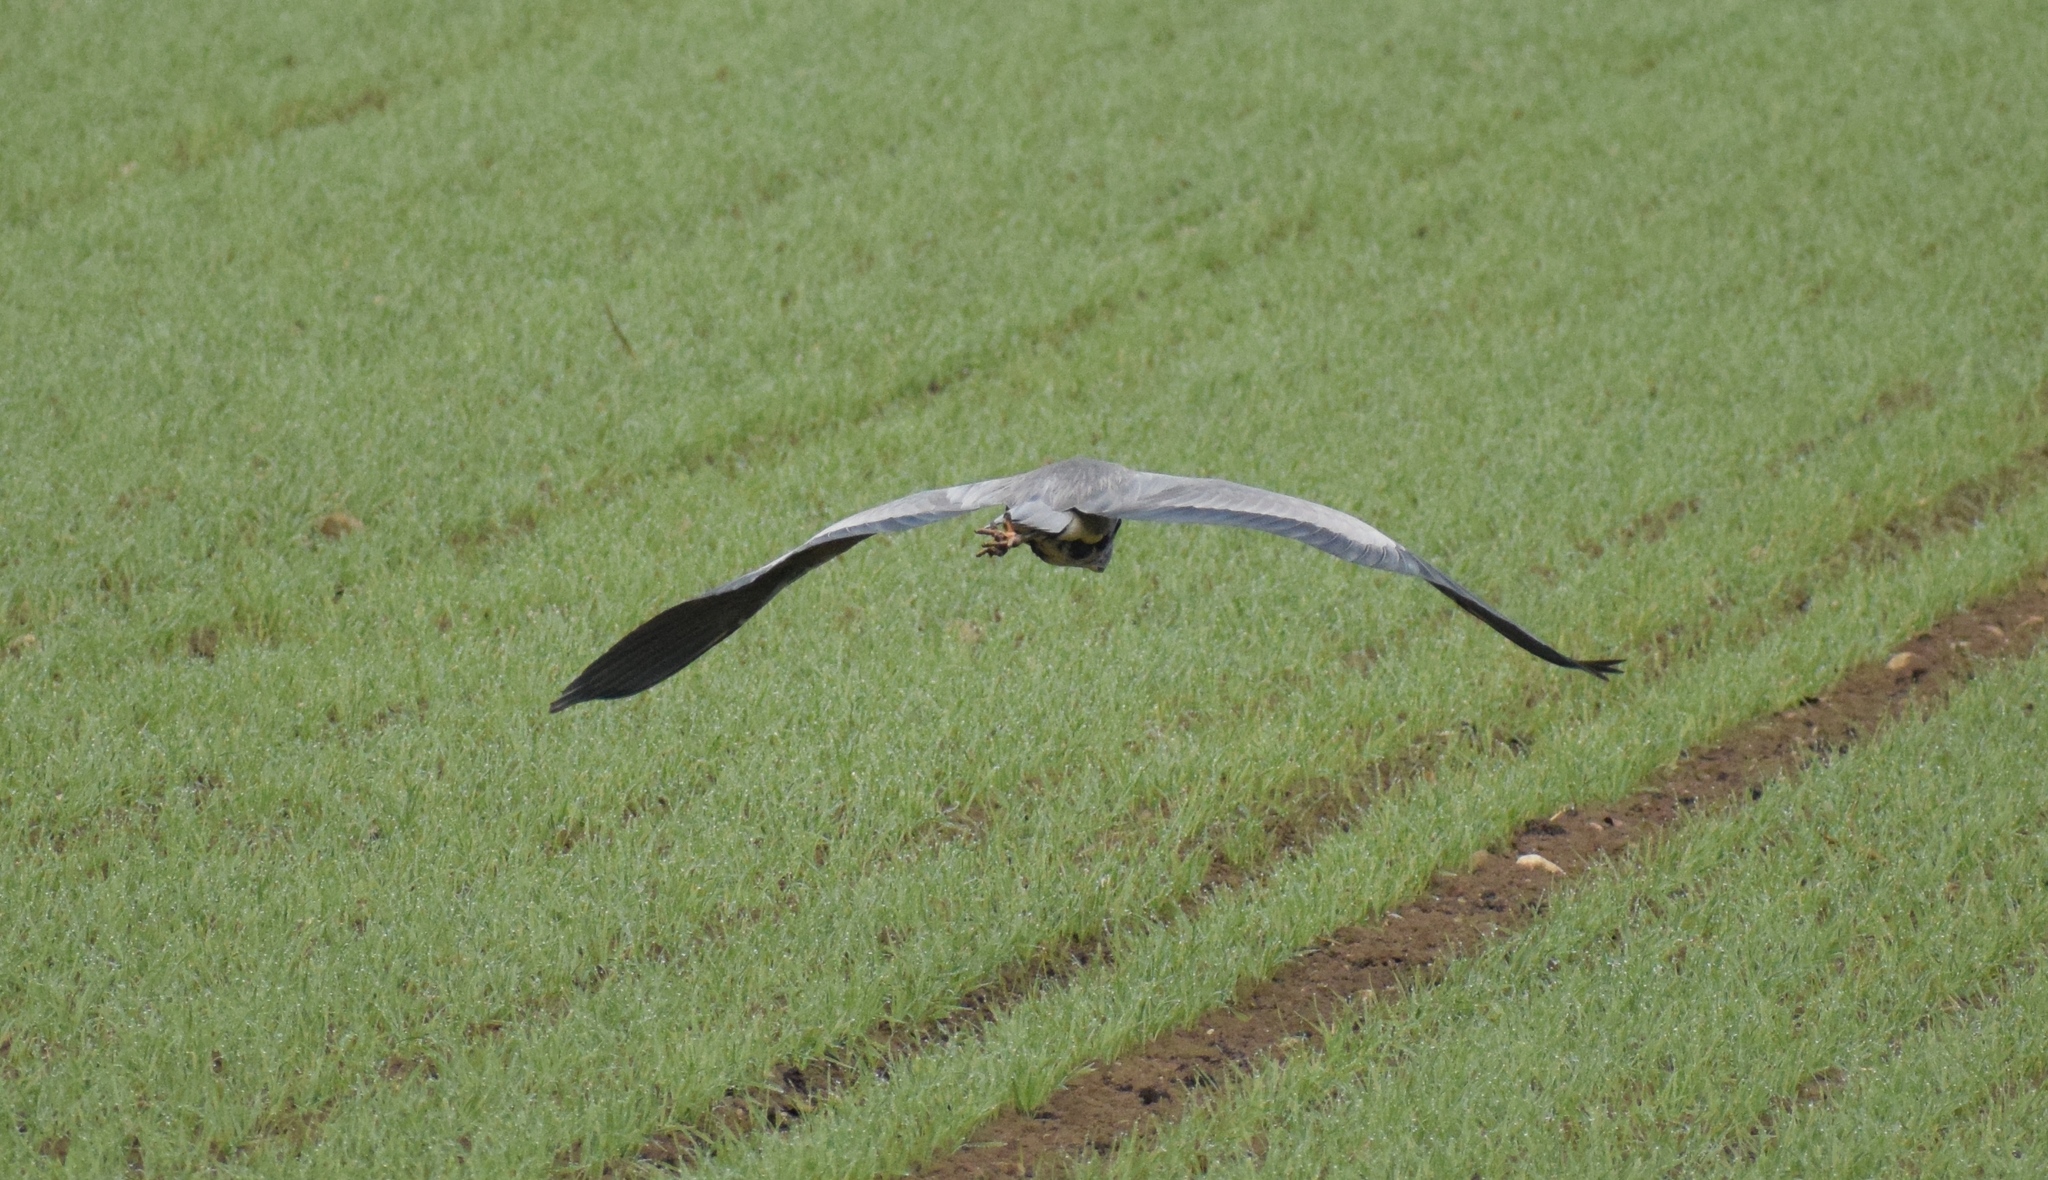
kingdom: Animalia
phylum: Chordata
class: Aves
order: Pelecaniformes
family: Ardeidae
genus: Ardea
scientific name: Ardea cinerea
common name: Grey heron
